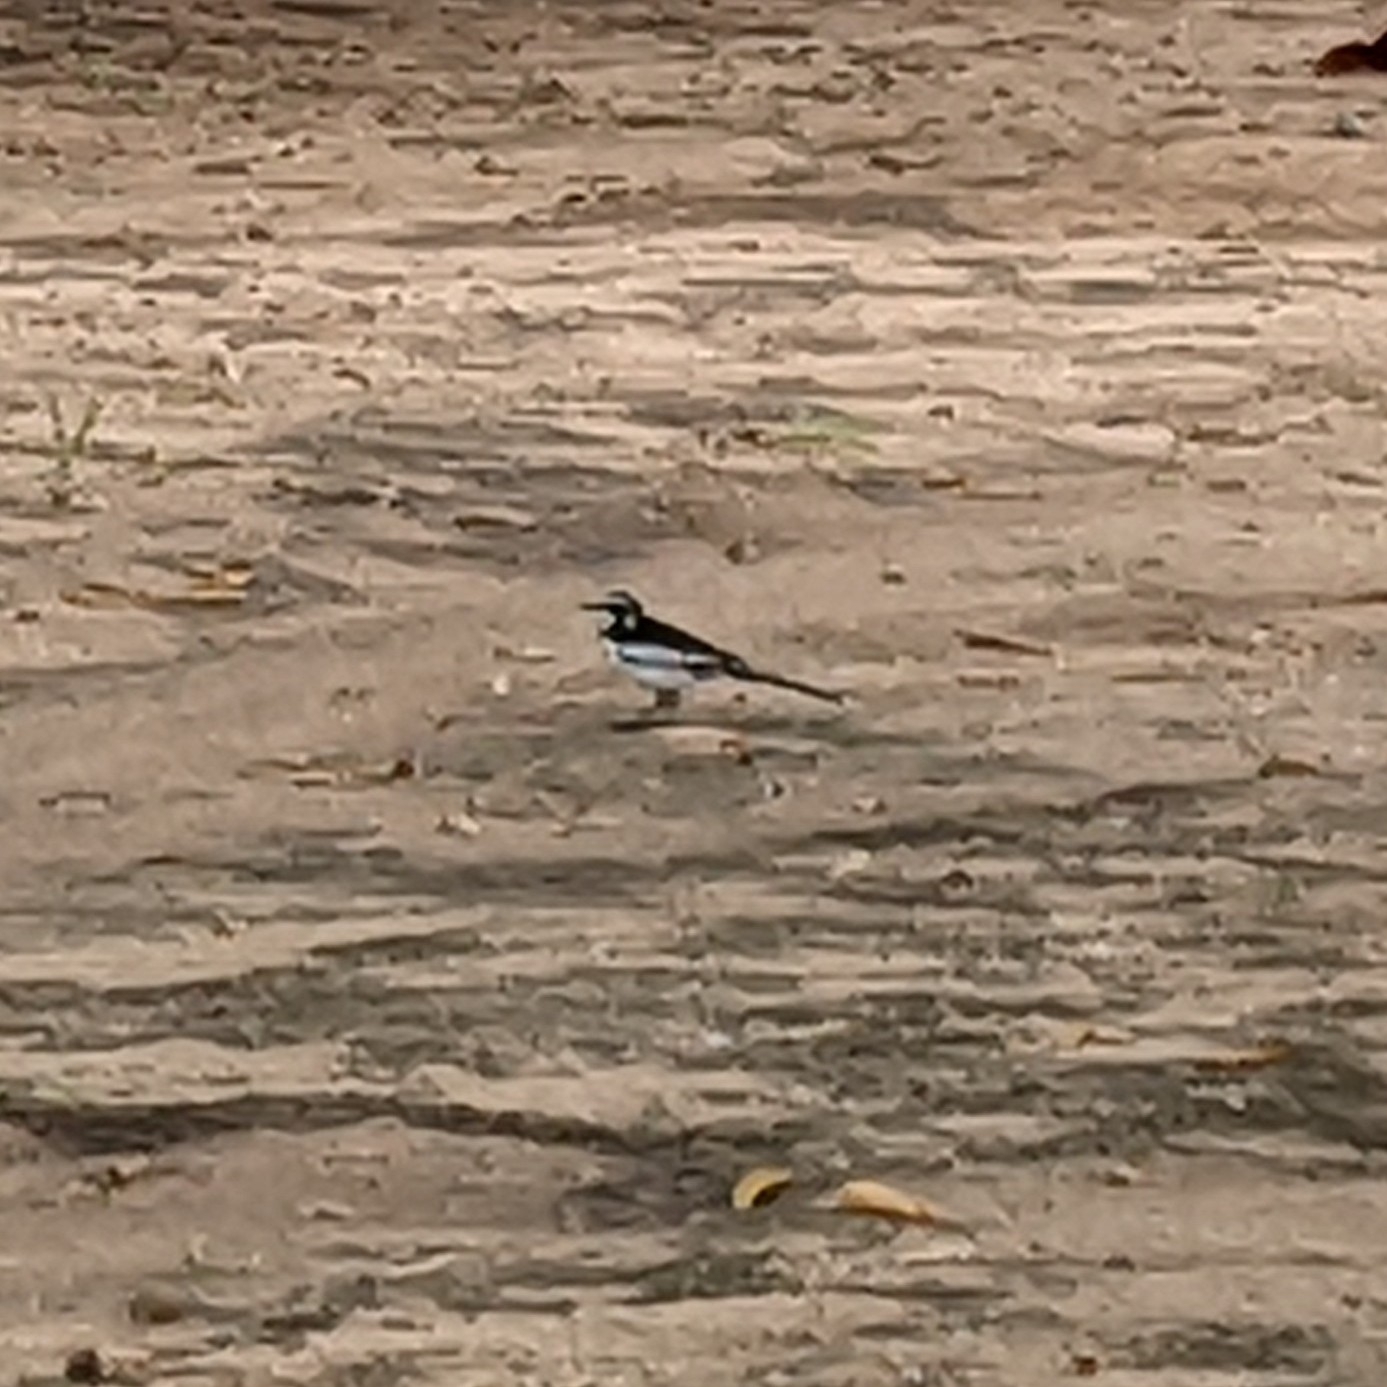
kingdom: Animalia
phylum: Chordata
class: Aves
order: Passeriformes
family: Motacillidae
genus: Motacilla
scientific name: Motacilla aguimp
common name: African pied wagtail
